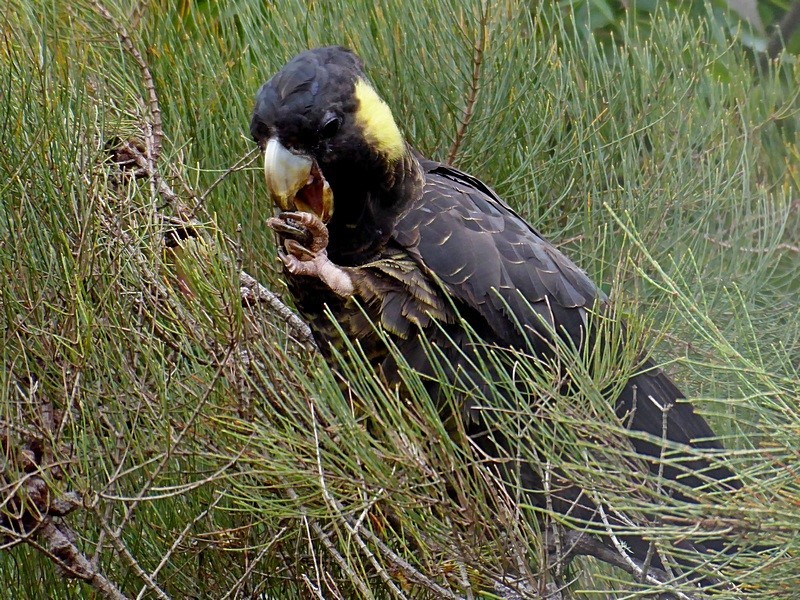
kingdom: Animalia
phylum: Chordata
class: Aves
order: Psittaciformes
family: Cacatuidae
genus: Zanda
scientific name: Zanda funerea
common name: Yellow-tailed black-cockatoo
